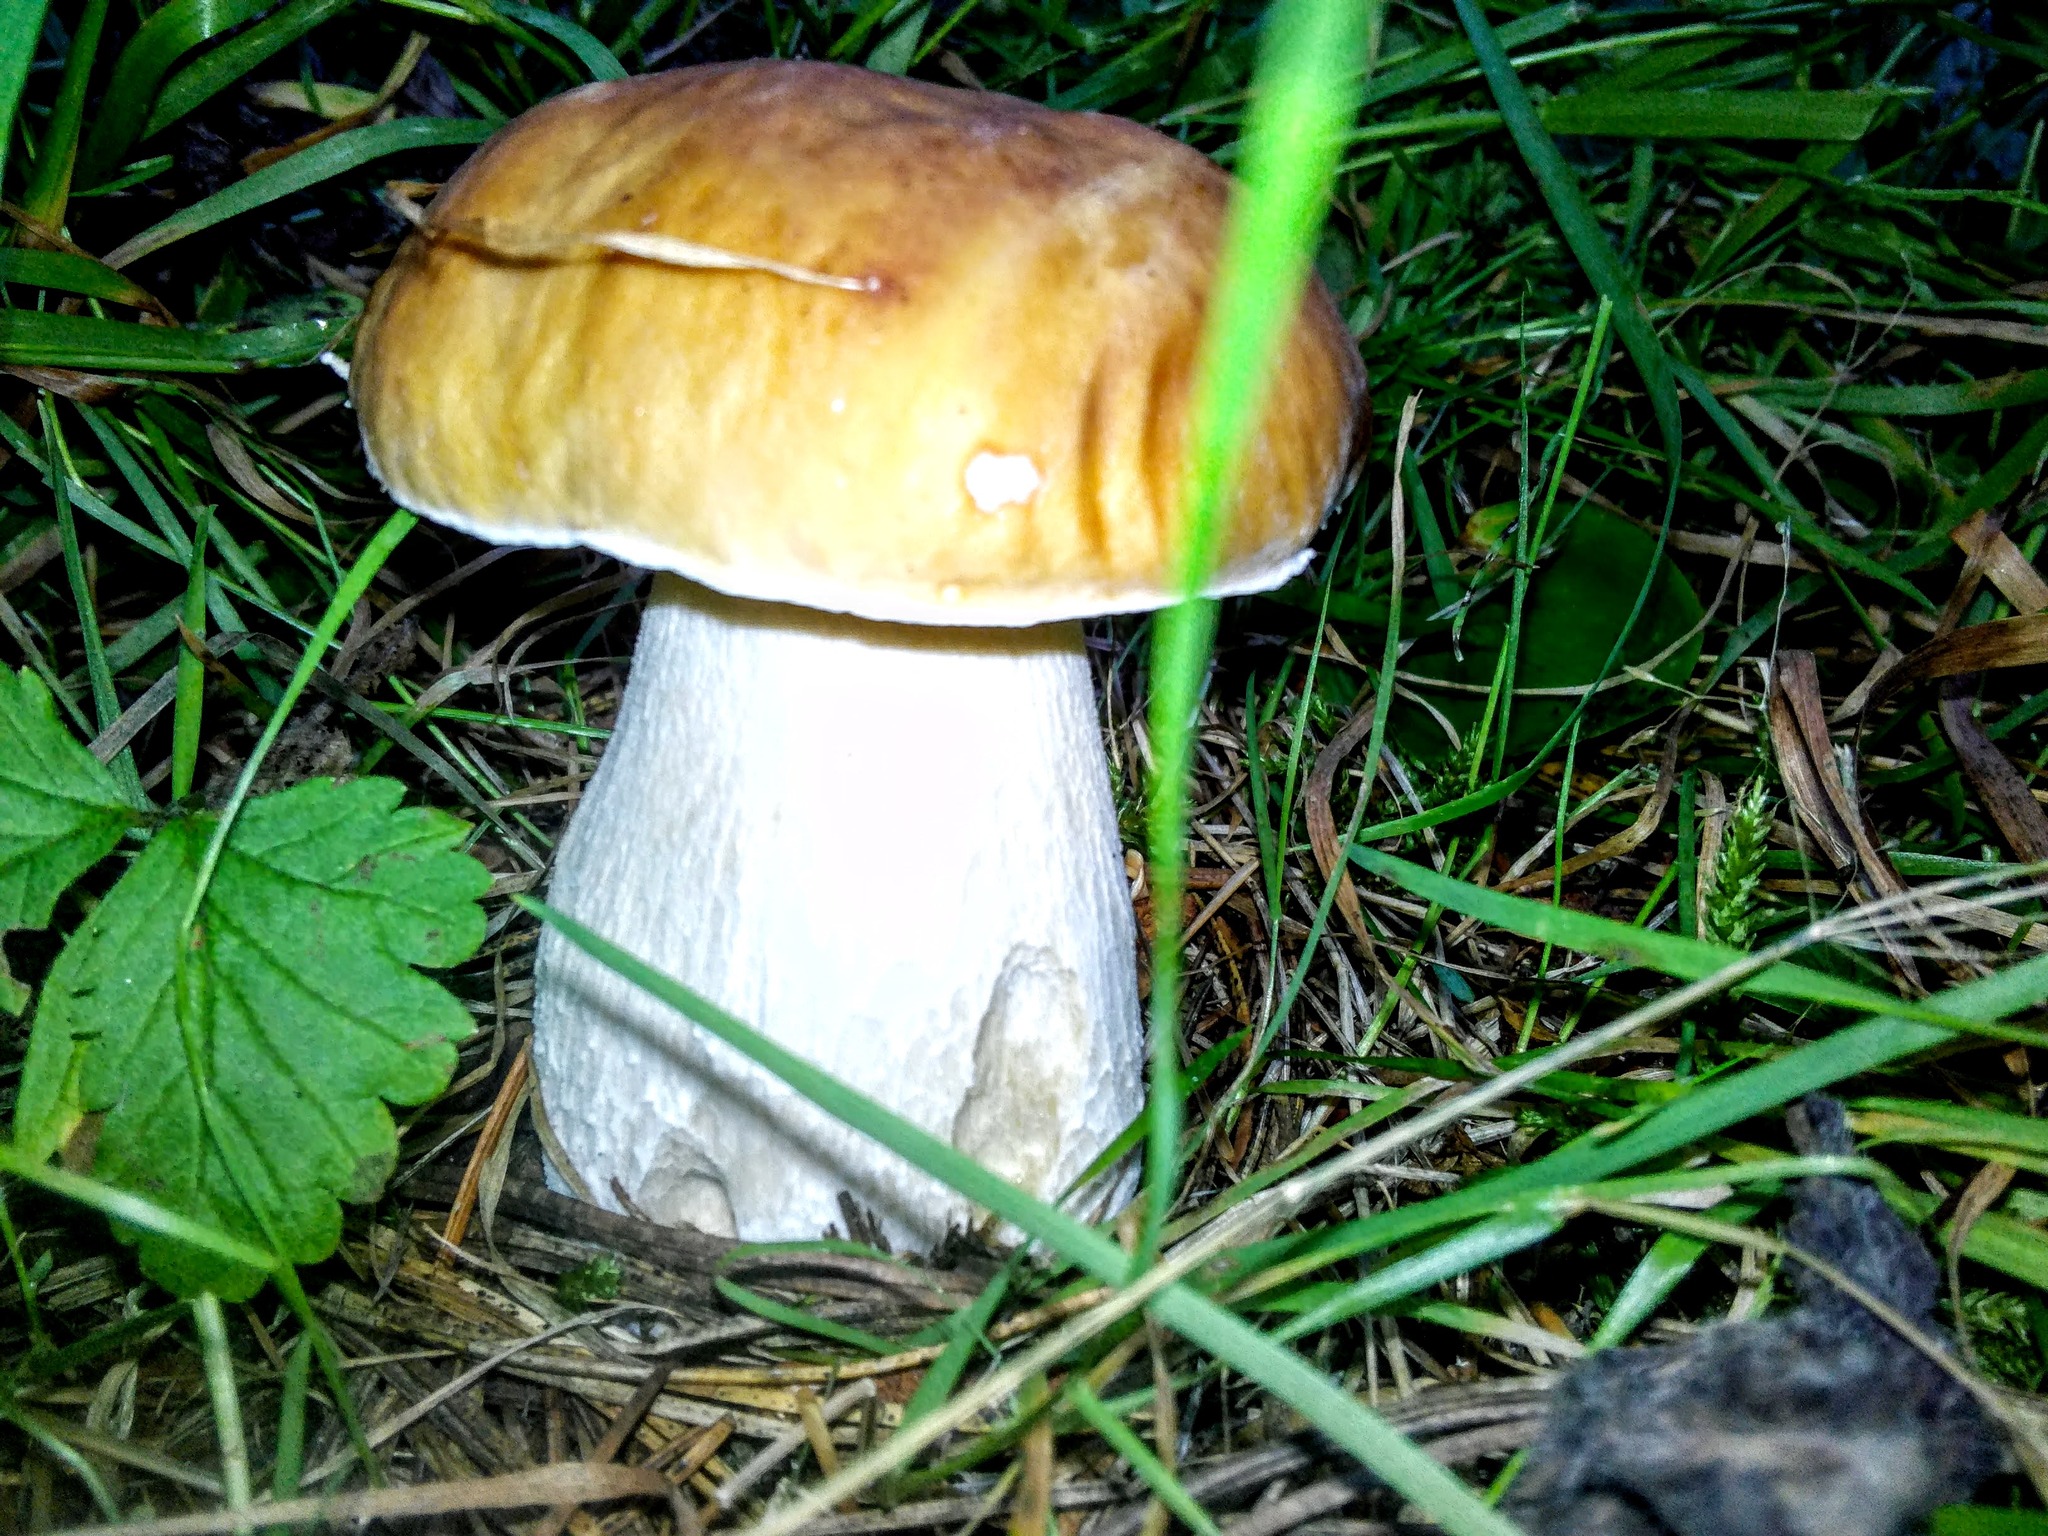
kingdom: Fungi
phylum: Basidiomycota
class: Agaricomycetes
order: Boletales
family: Boletaceae
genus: Boletus
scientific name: Boletus edulis
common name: Cep
